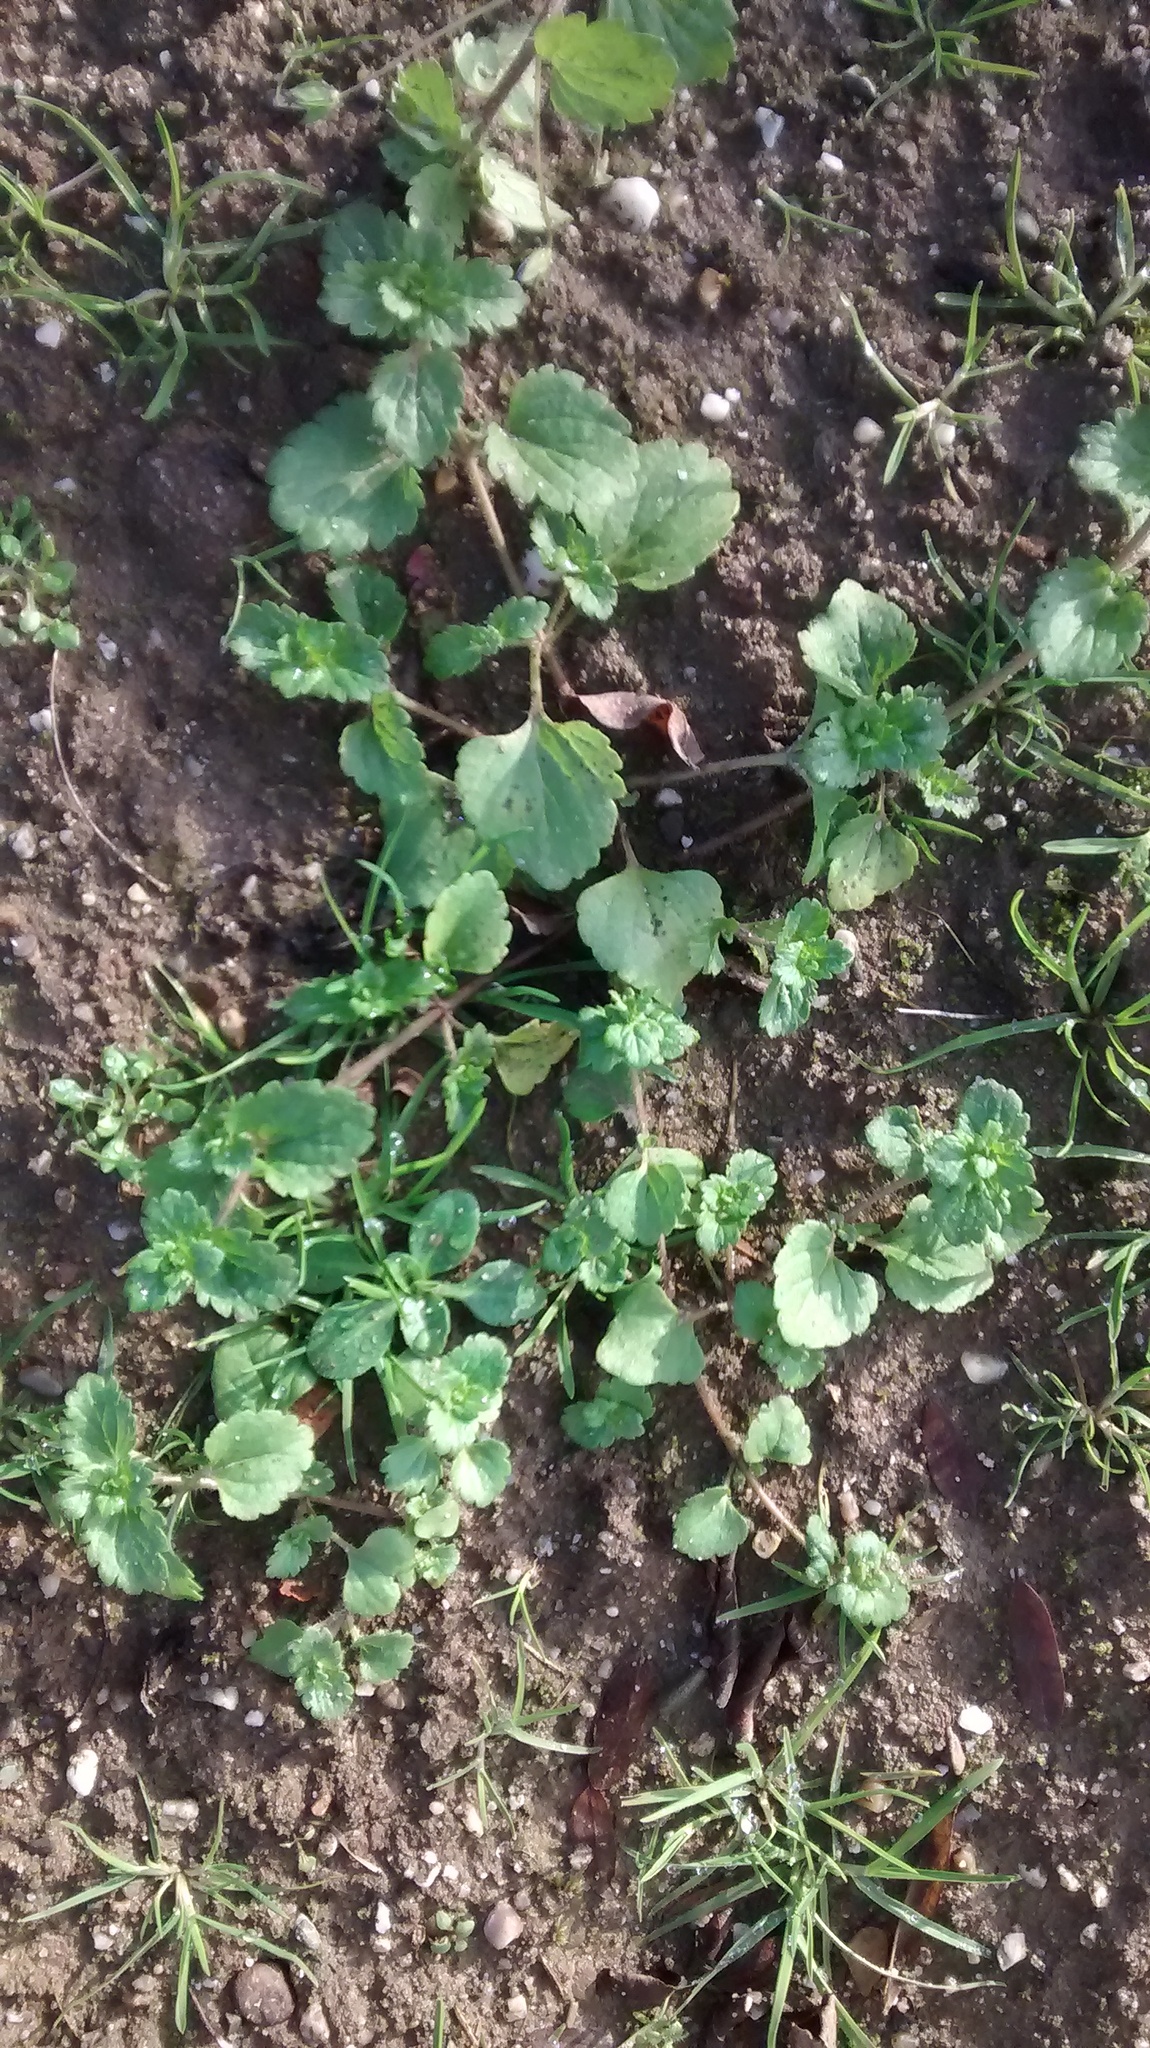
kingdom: Plantae
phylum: Tracheophyta
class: Magnoliopsida
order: Lamiales
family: Plantaginaceae
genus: Veronica
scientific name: Veronica persica
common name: Common field-speedwell
